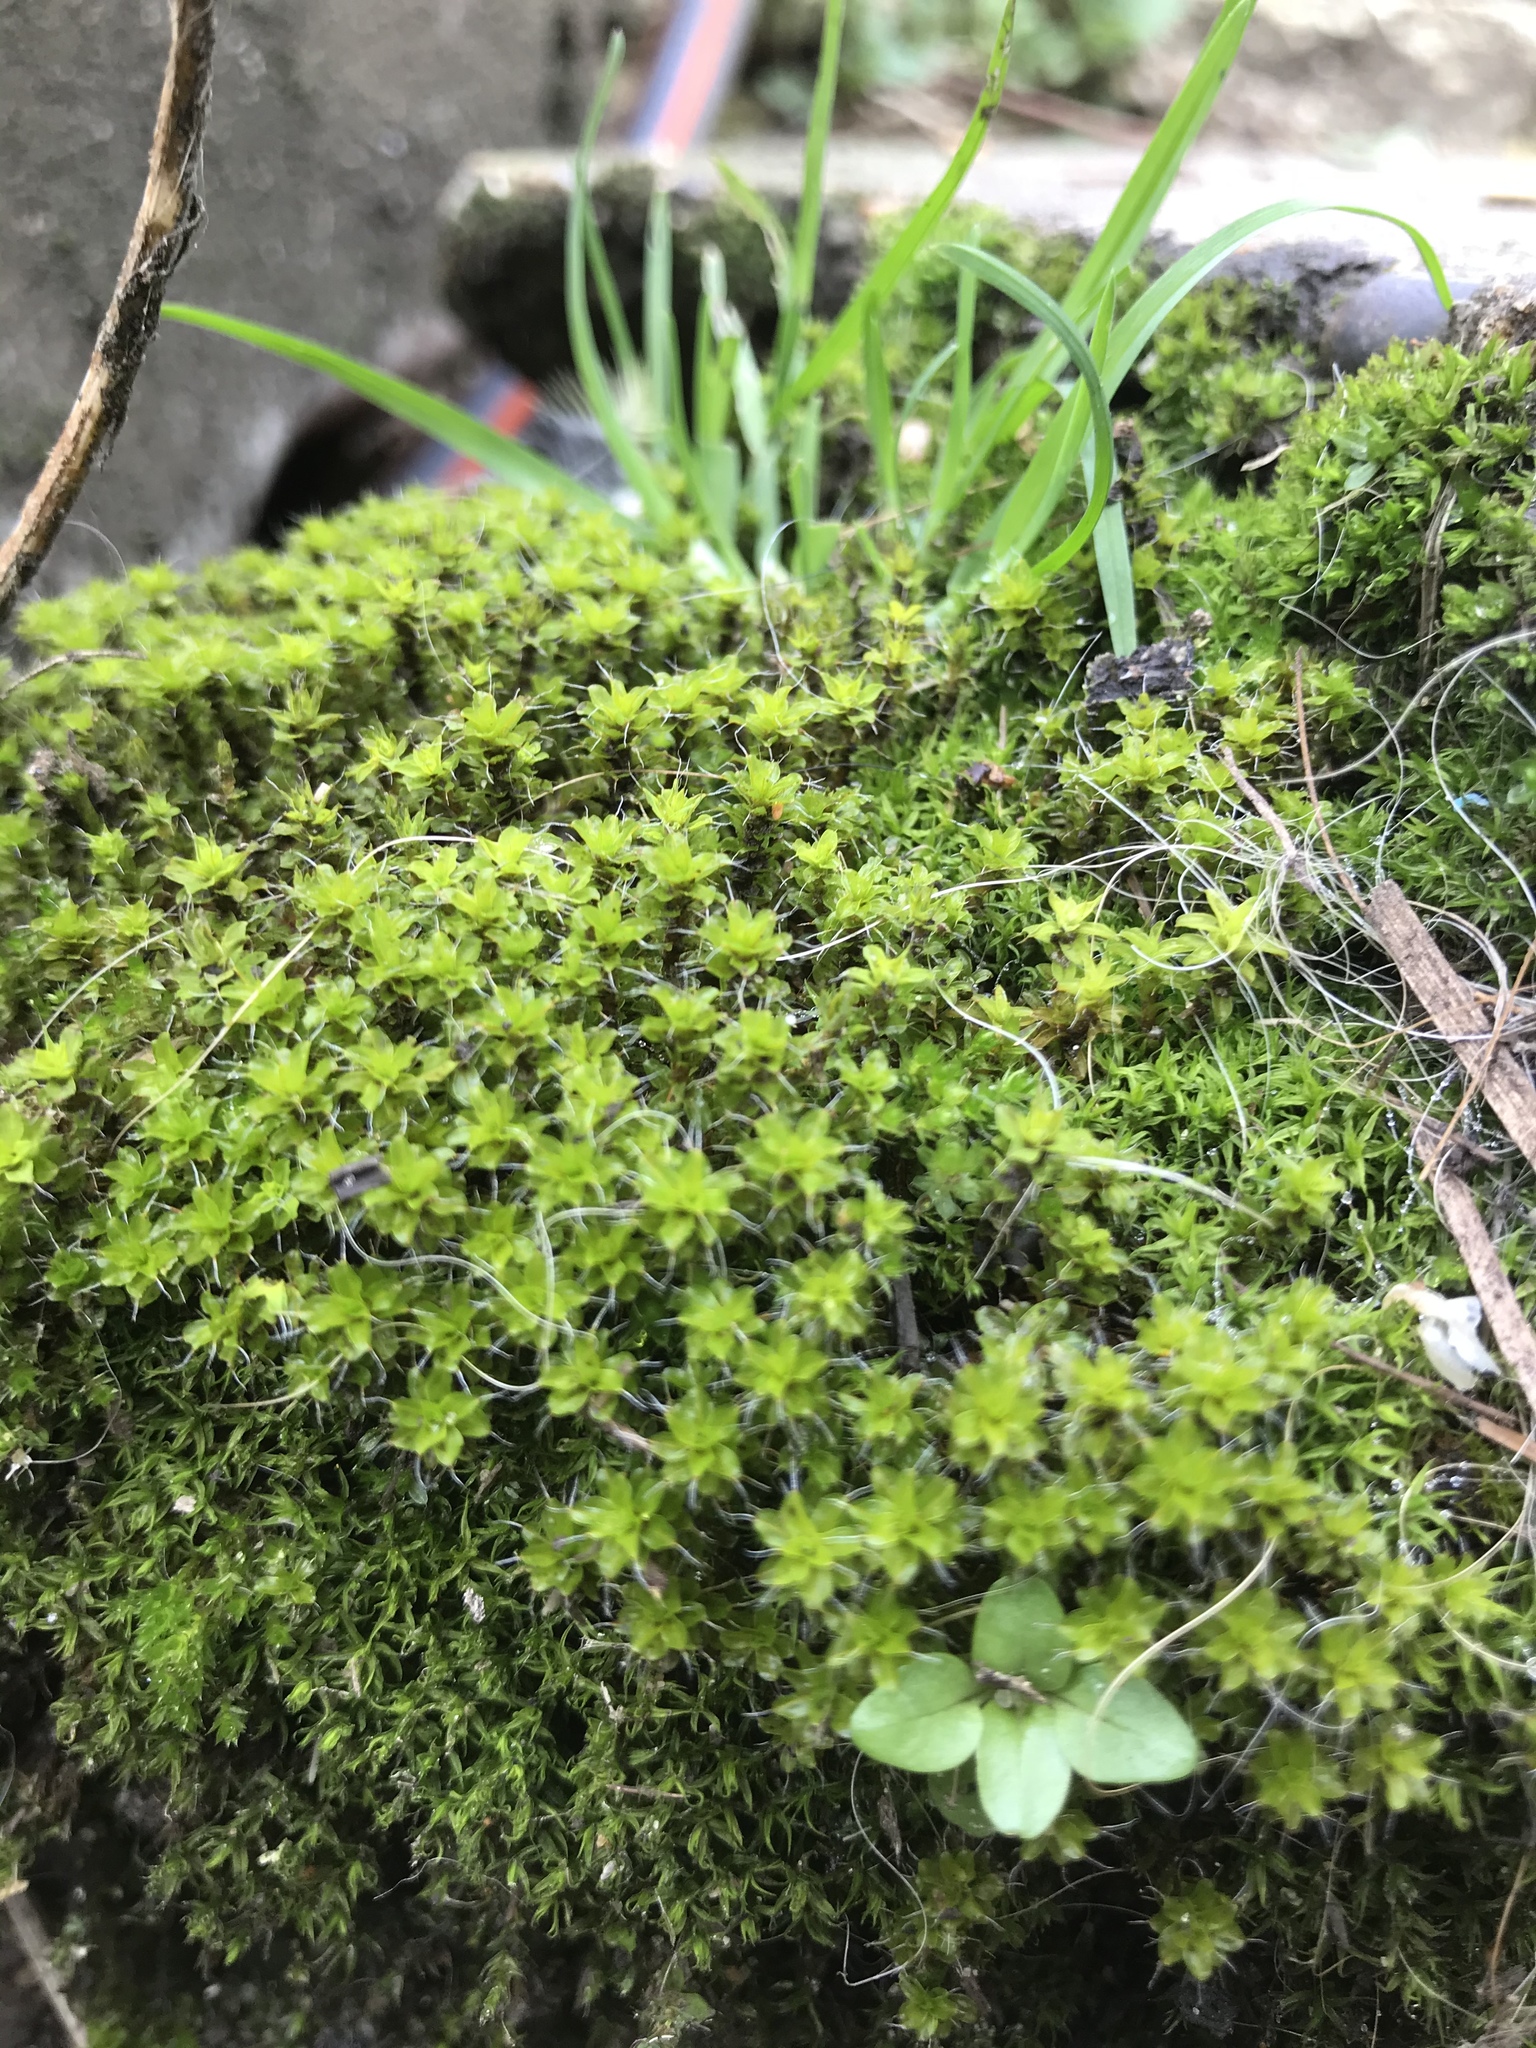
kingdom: Plantae
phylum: Bryophyta
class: Bryopsida
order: Pottiales
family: Pottiaceae
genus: Syntrichia
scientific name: Syntrichia montana
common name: Intermediate screw-moss
